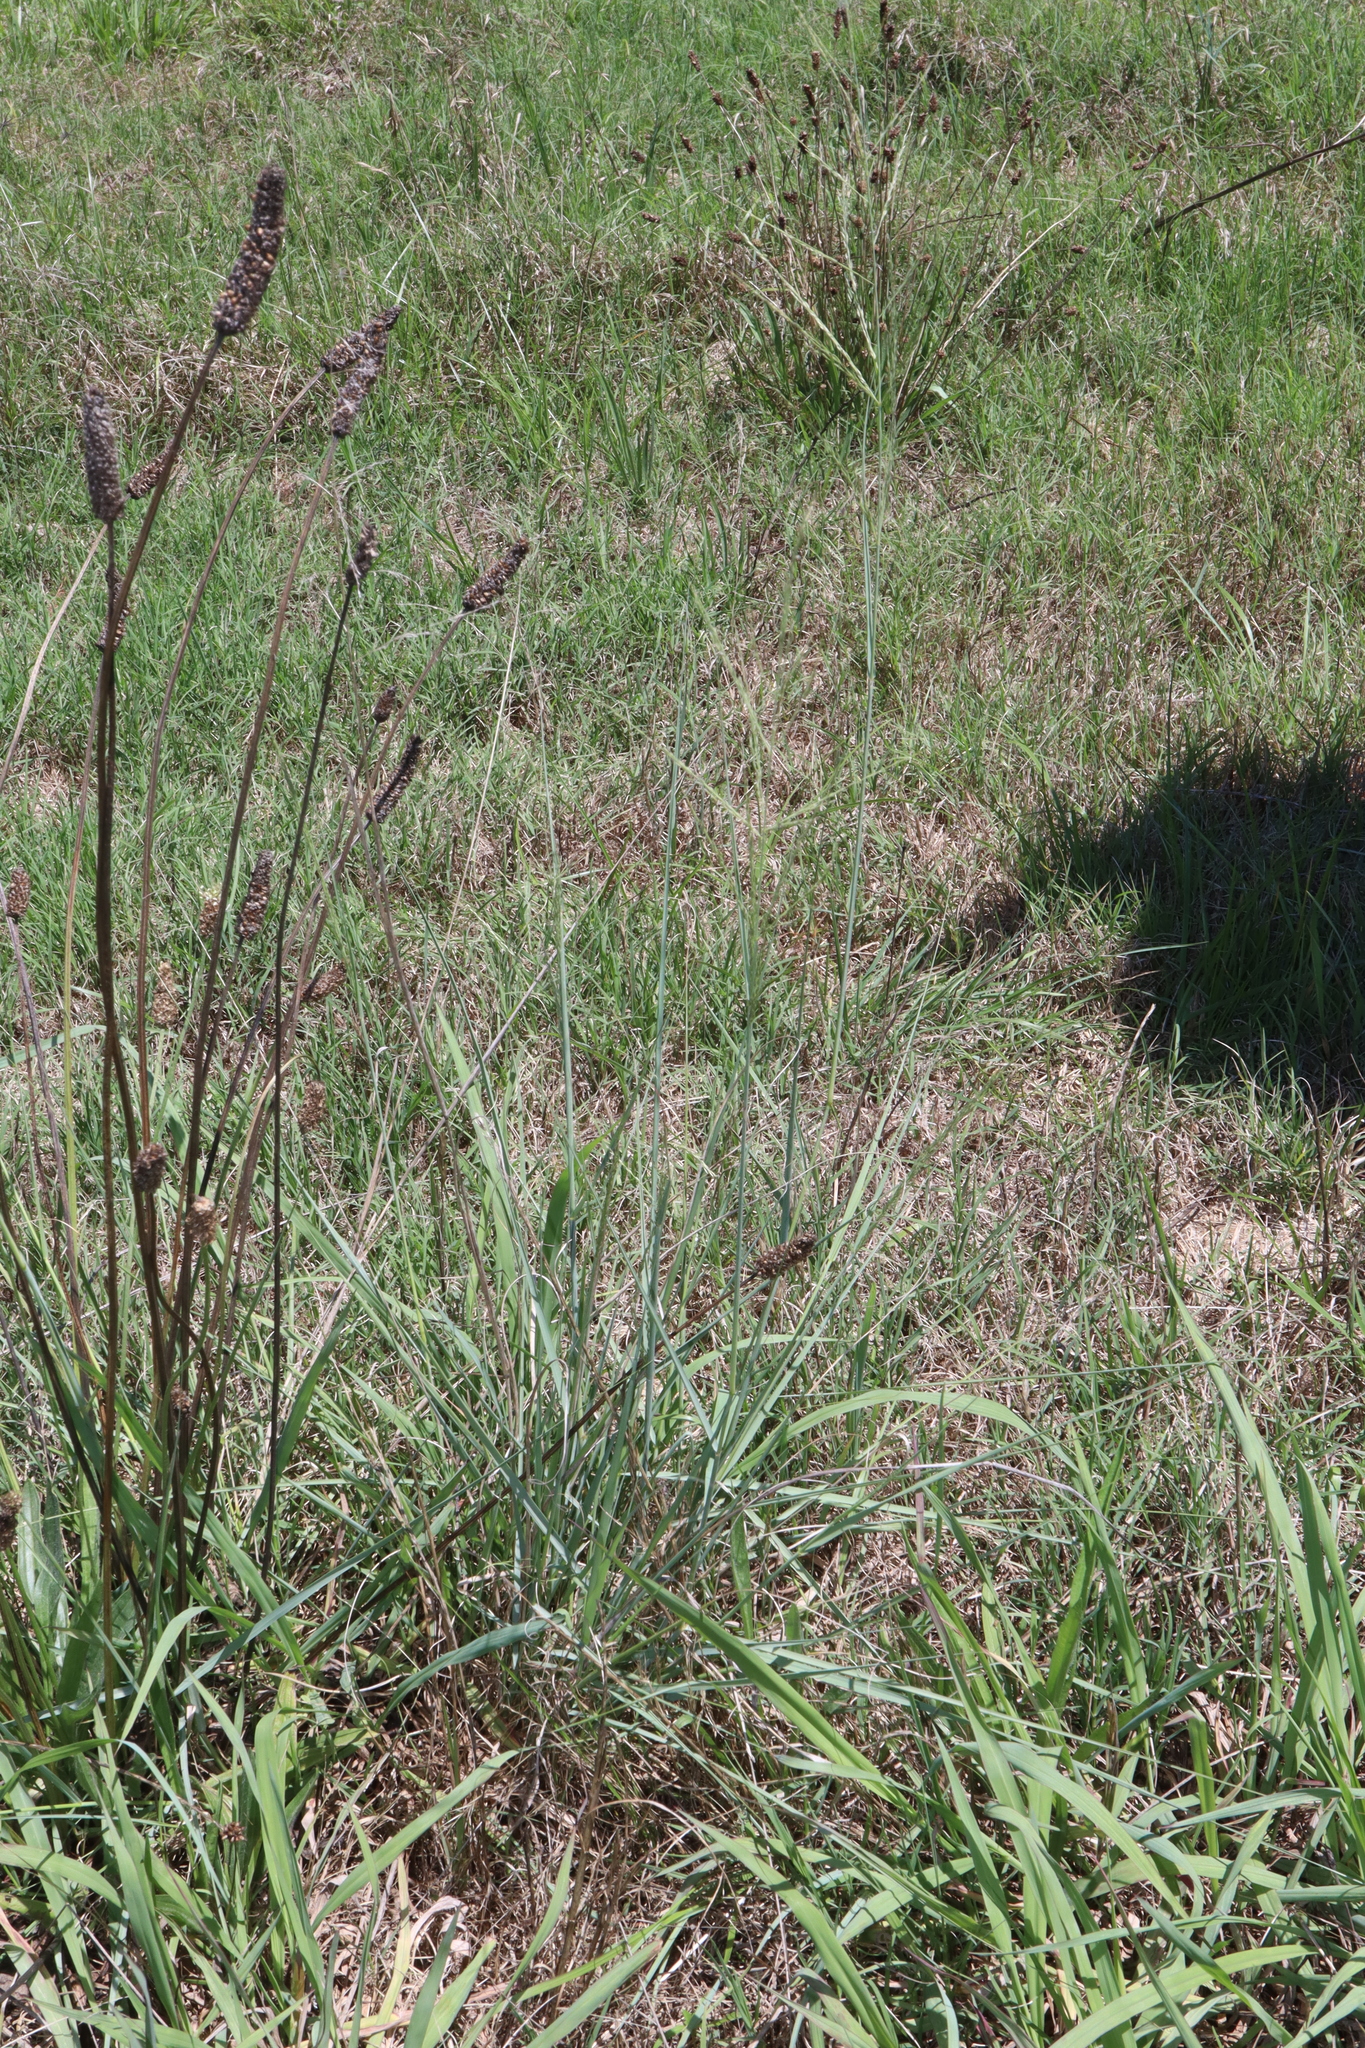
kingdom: Plantae
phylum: Tracheophyta
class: Liliopsida
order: Poales
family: Poaceae
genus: Eragrostis
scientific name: Eragrostis curvula
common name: African love-grass
